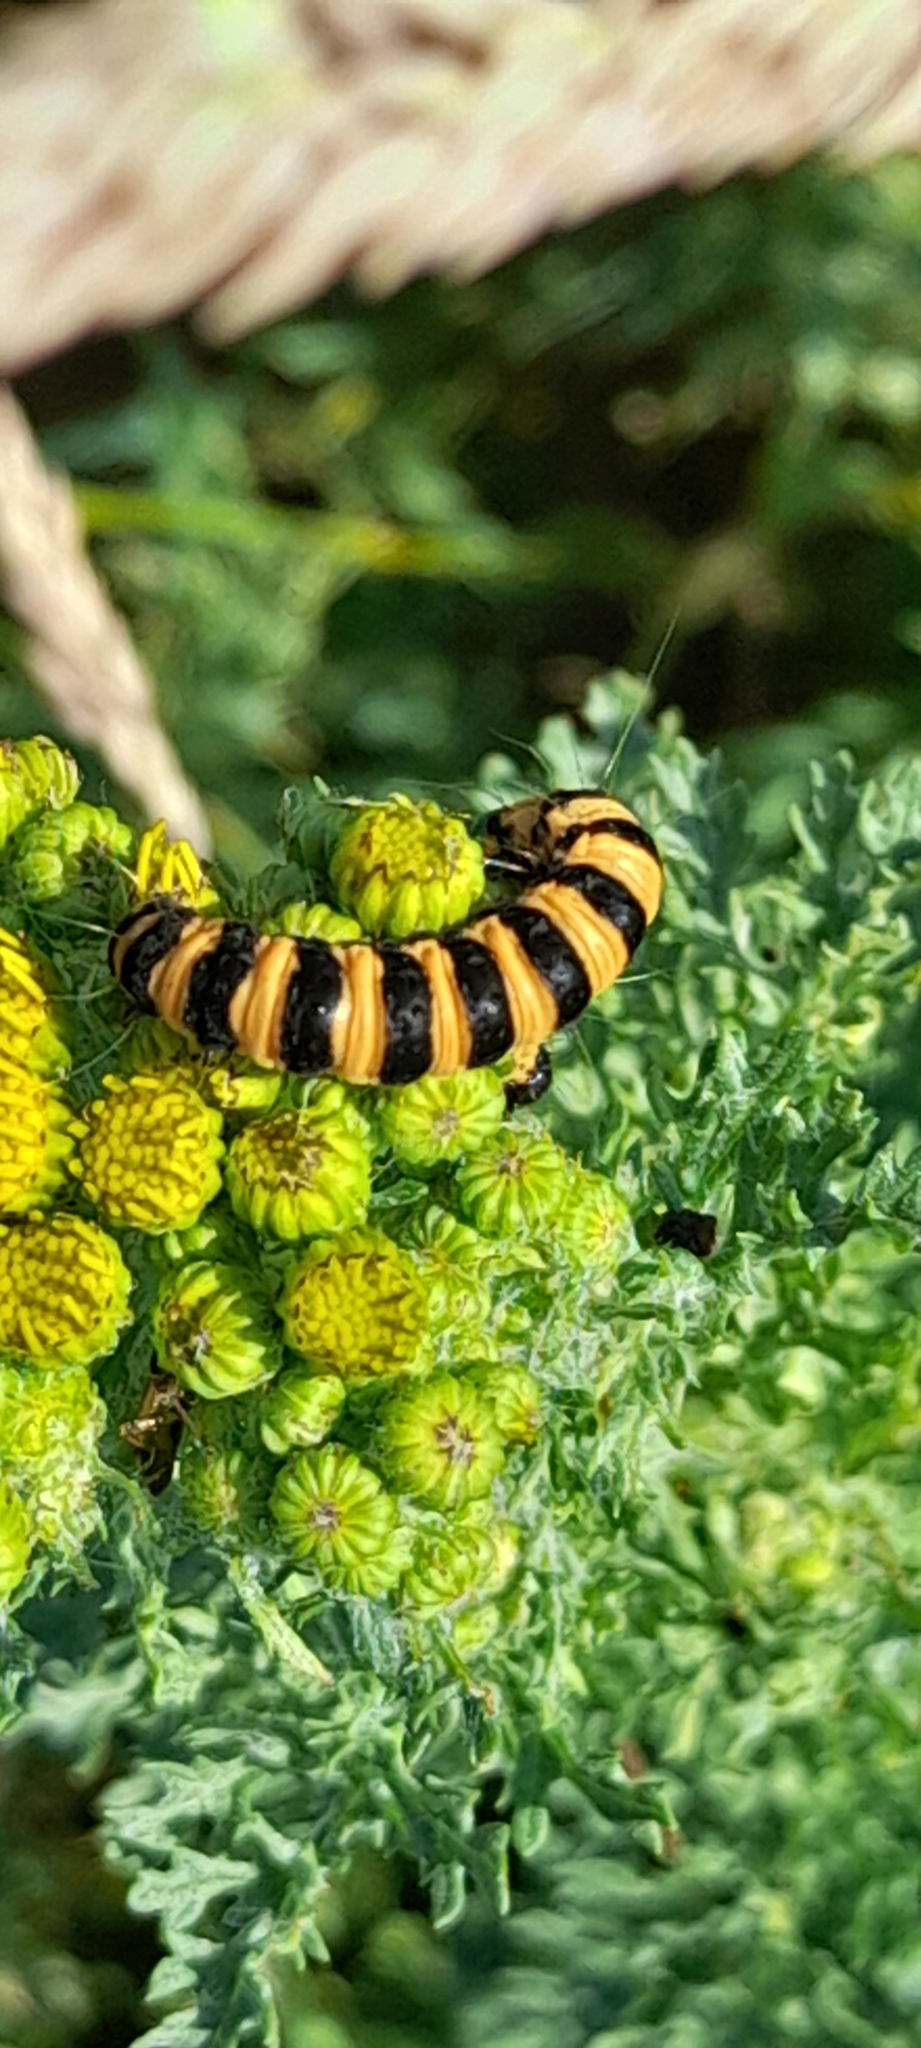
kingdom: Animalia
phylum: Arthropoda
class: Insecta
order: Lepidoptera
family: Erebidae
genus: Tyria
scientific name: Tyria jacobaeae
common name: Cinnabar
